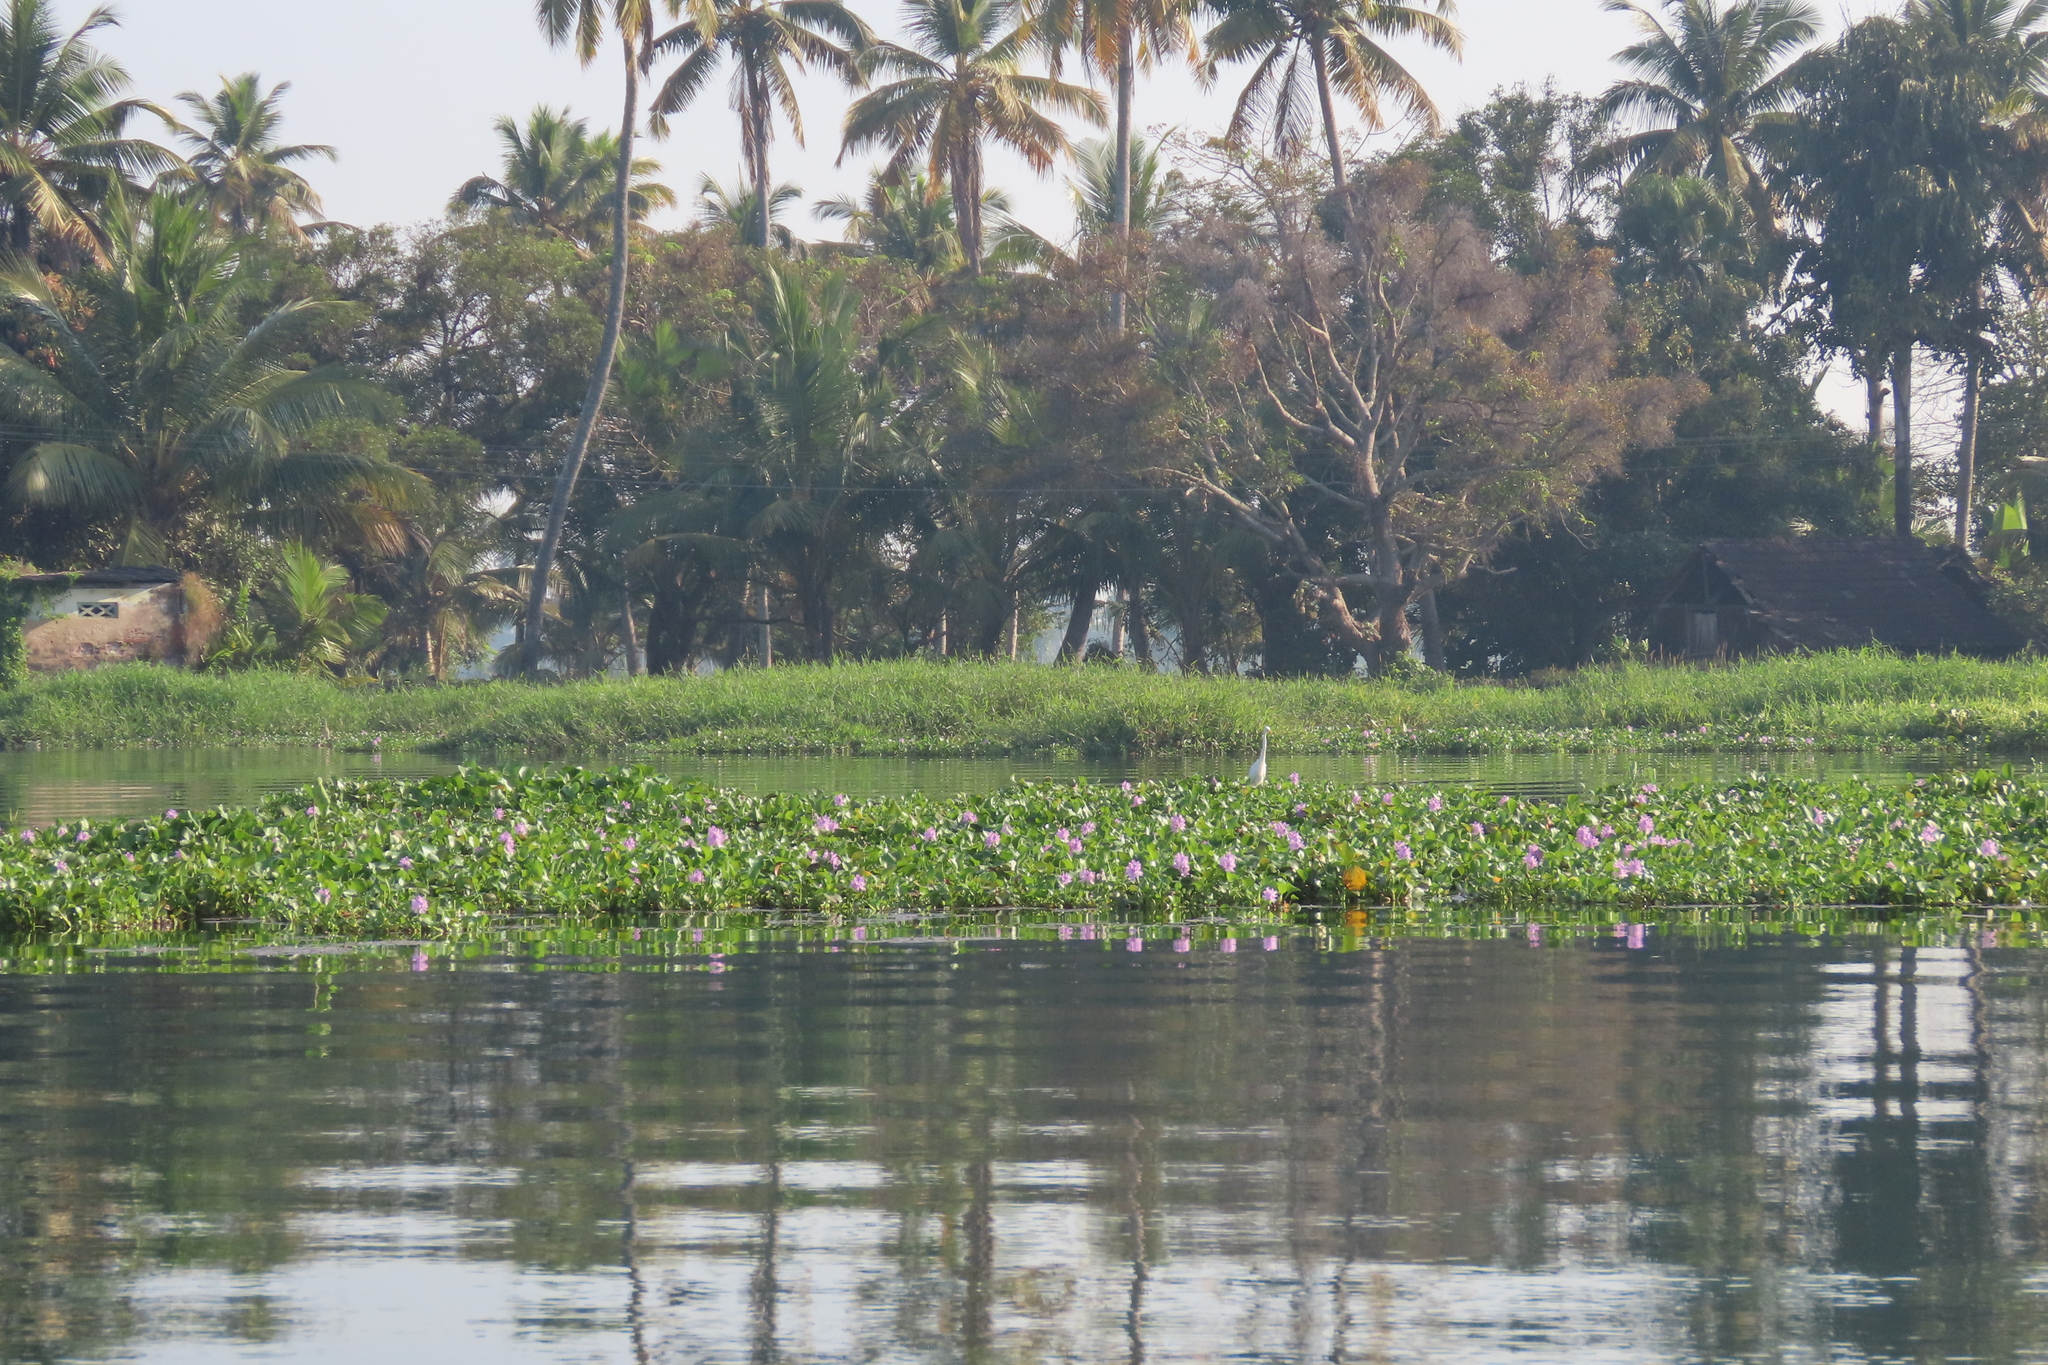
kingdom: Plantae
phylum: Tracheophyta
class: Liliopsida
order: Commelinales
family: Pontederiaceae
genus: Pontederia
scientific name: Pontederia crassipes
